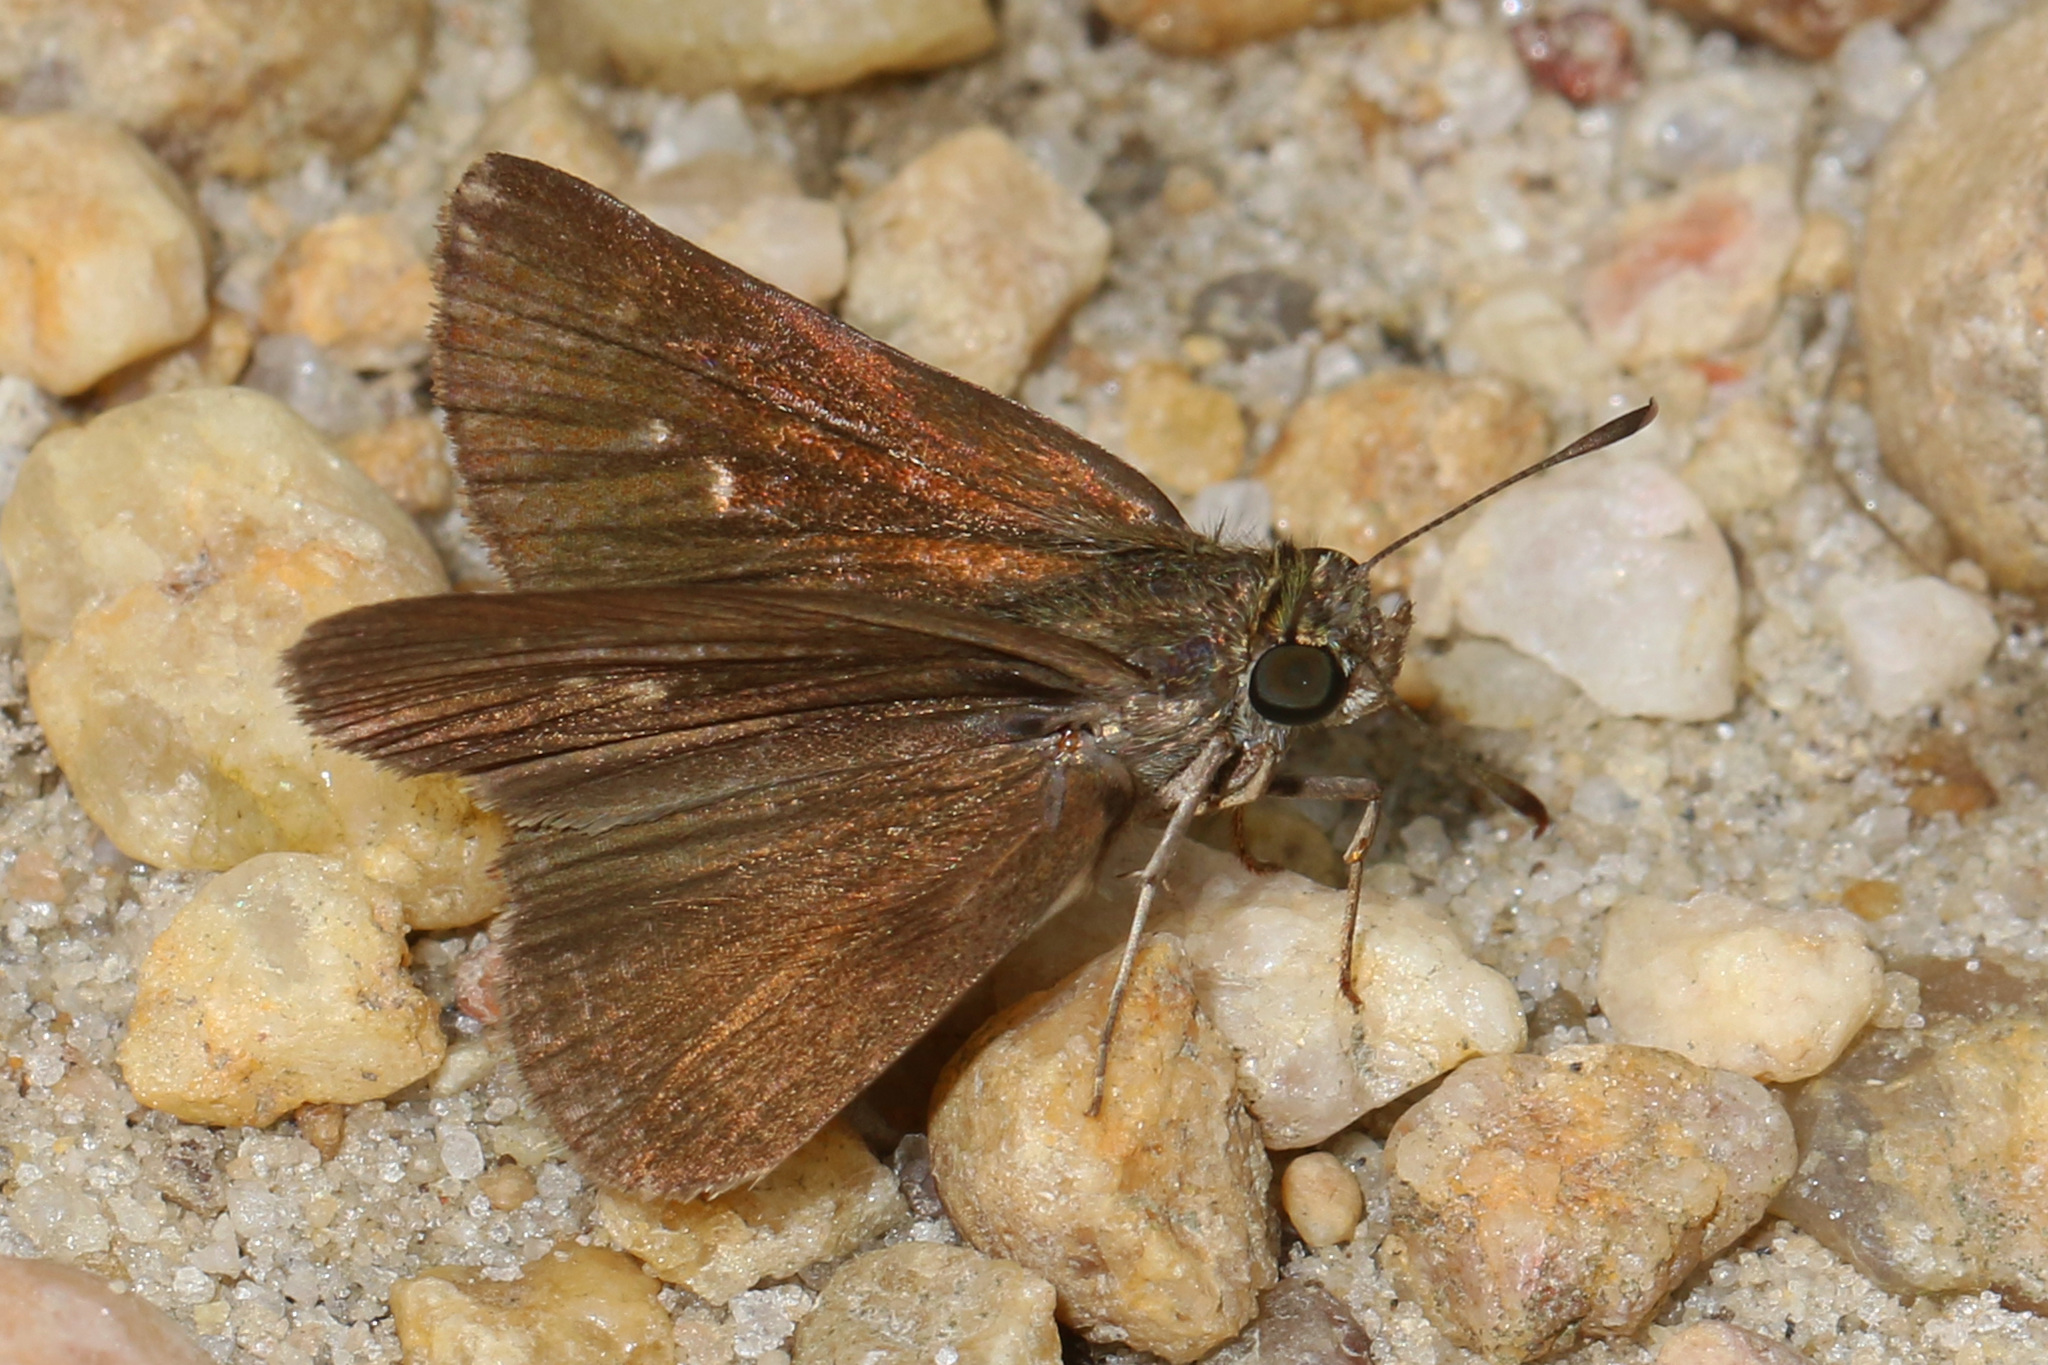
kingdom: Animalia
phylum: Arthropoda
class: Insecta
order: Lepidoptera
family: Hesperiidae
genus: Euphyes
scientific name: Euphyes vestris
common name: Dun skipper
